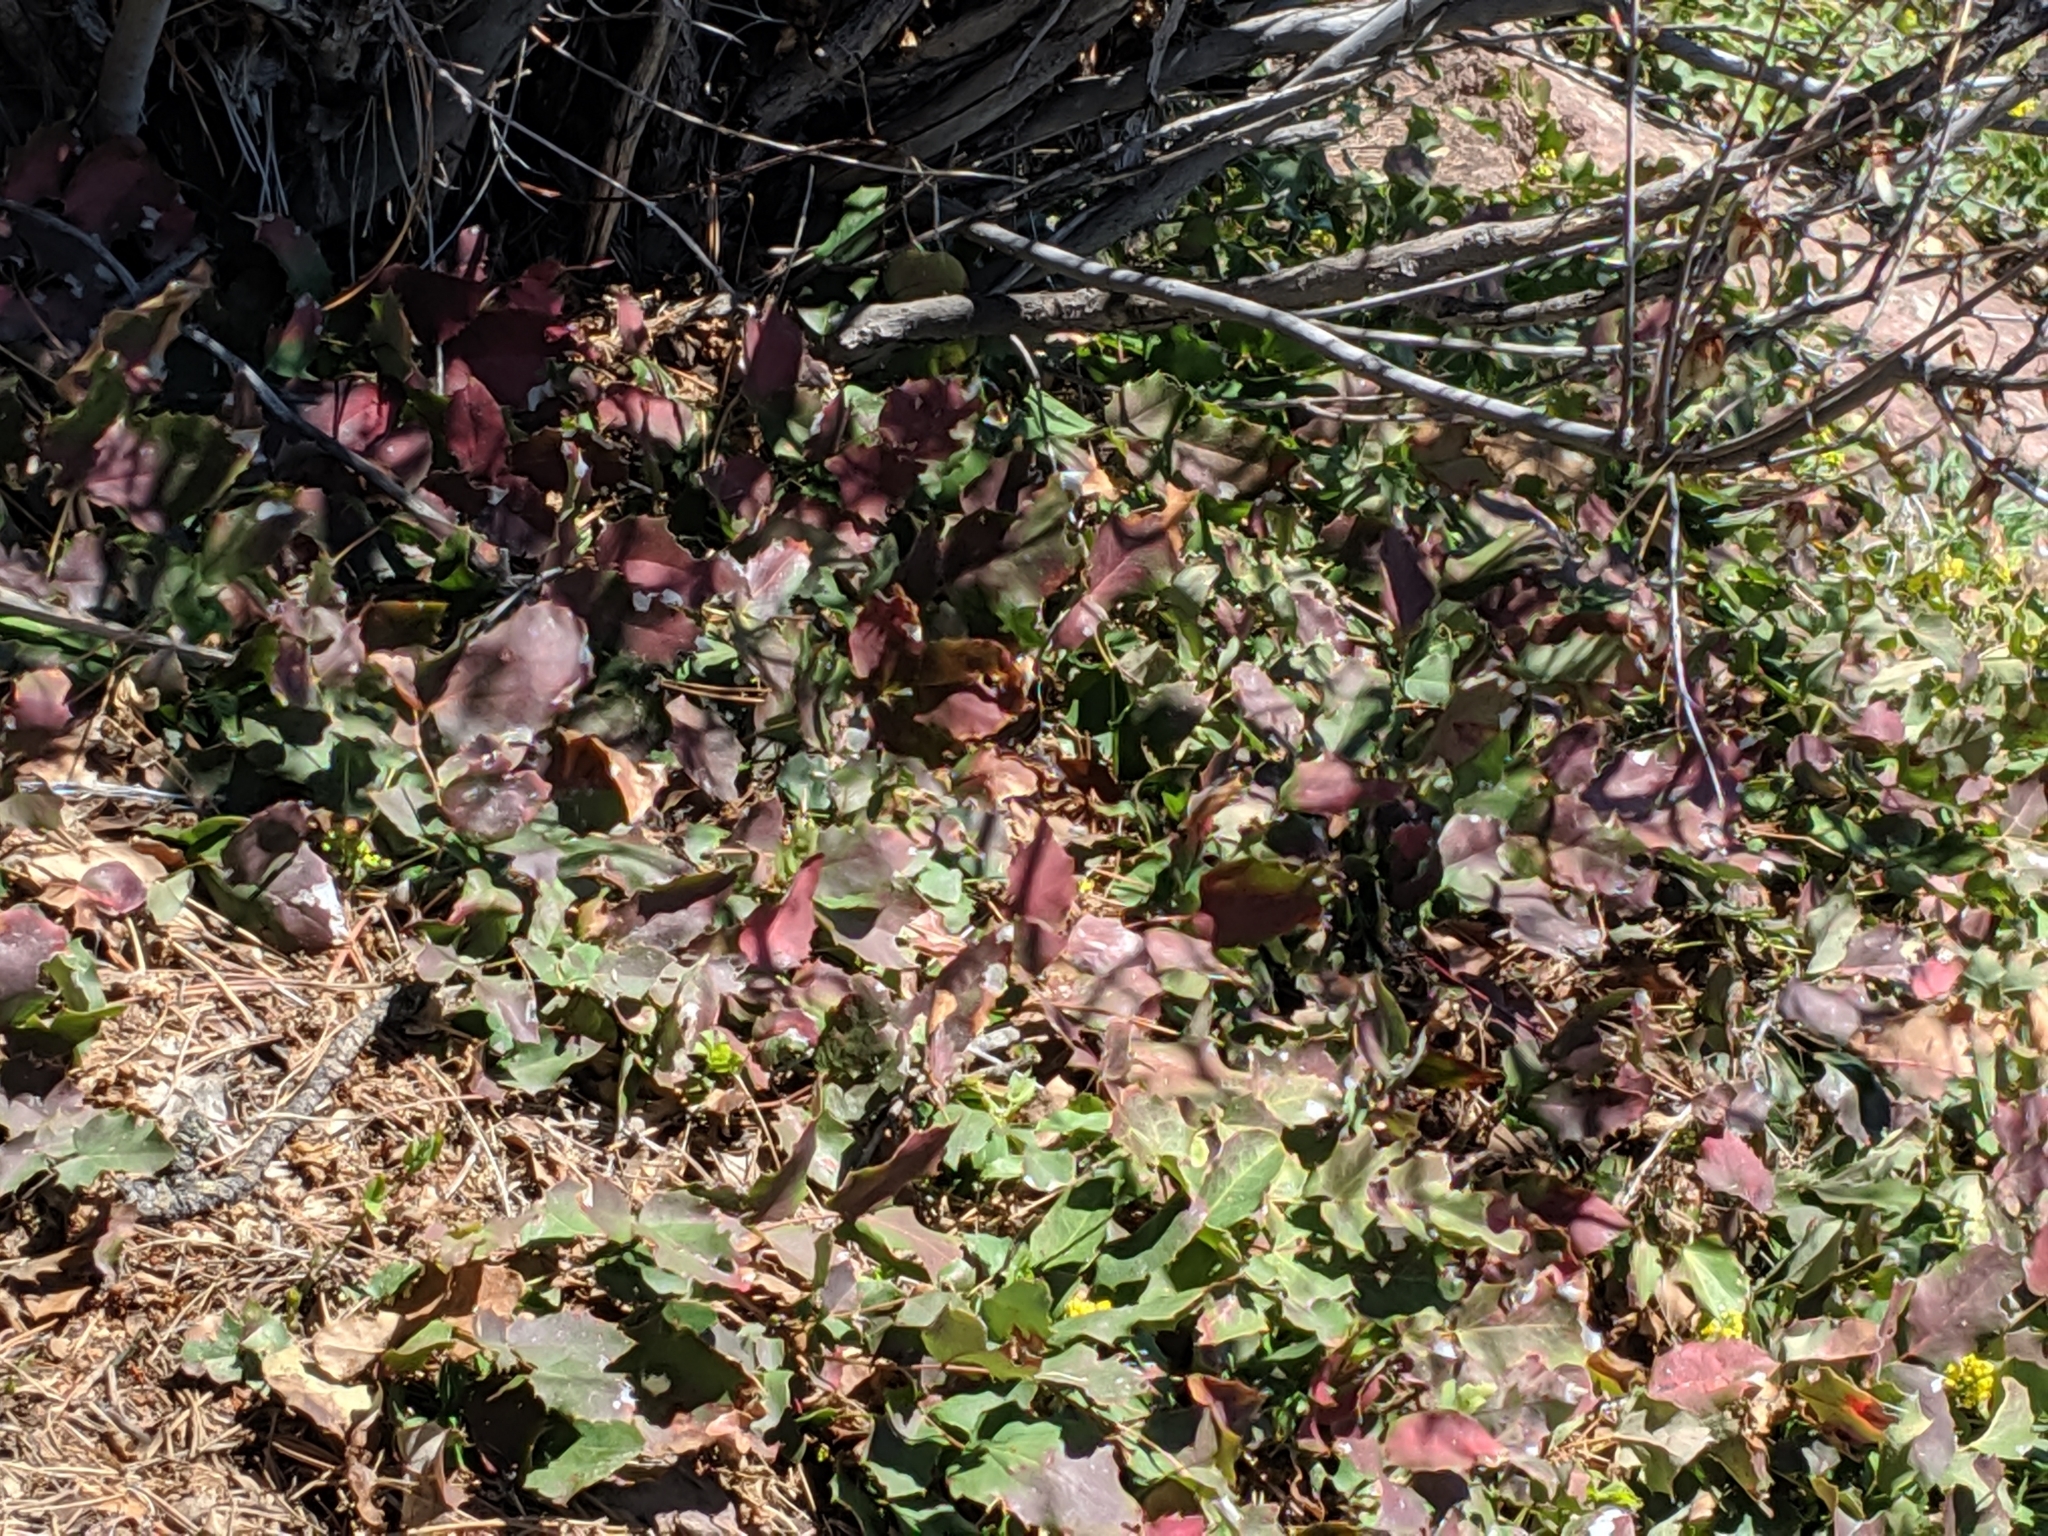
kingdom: Plantae
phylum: Tracheophyta
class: Magnoliopsida
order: Ranunculales
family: Berberidaceae
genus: Mahonia
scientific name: Mahonia repens
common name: Creeping oregon-grape
